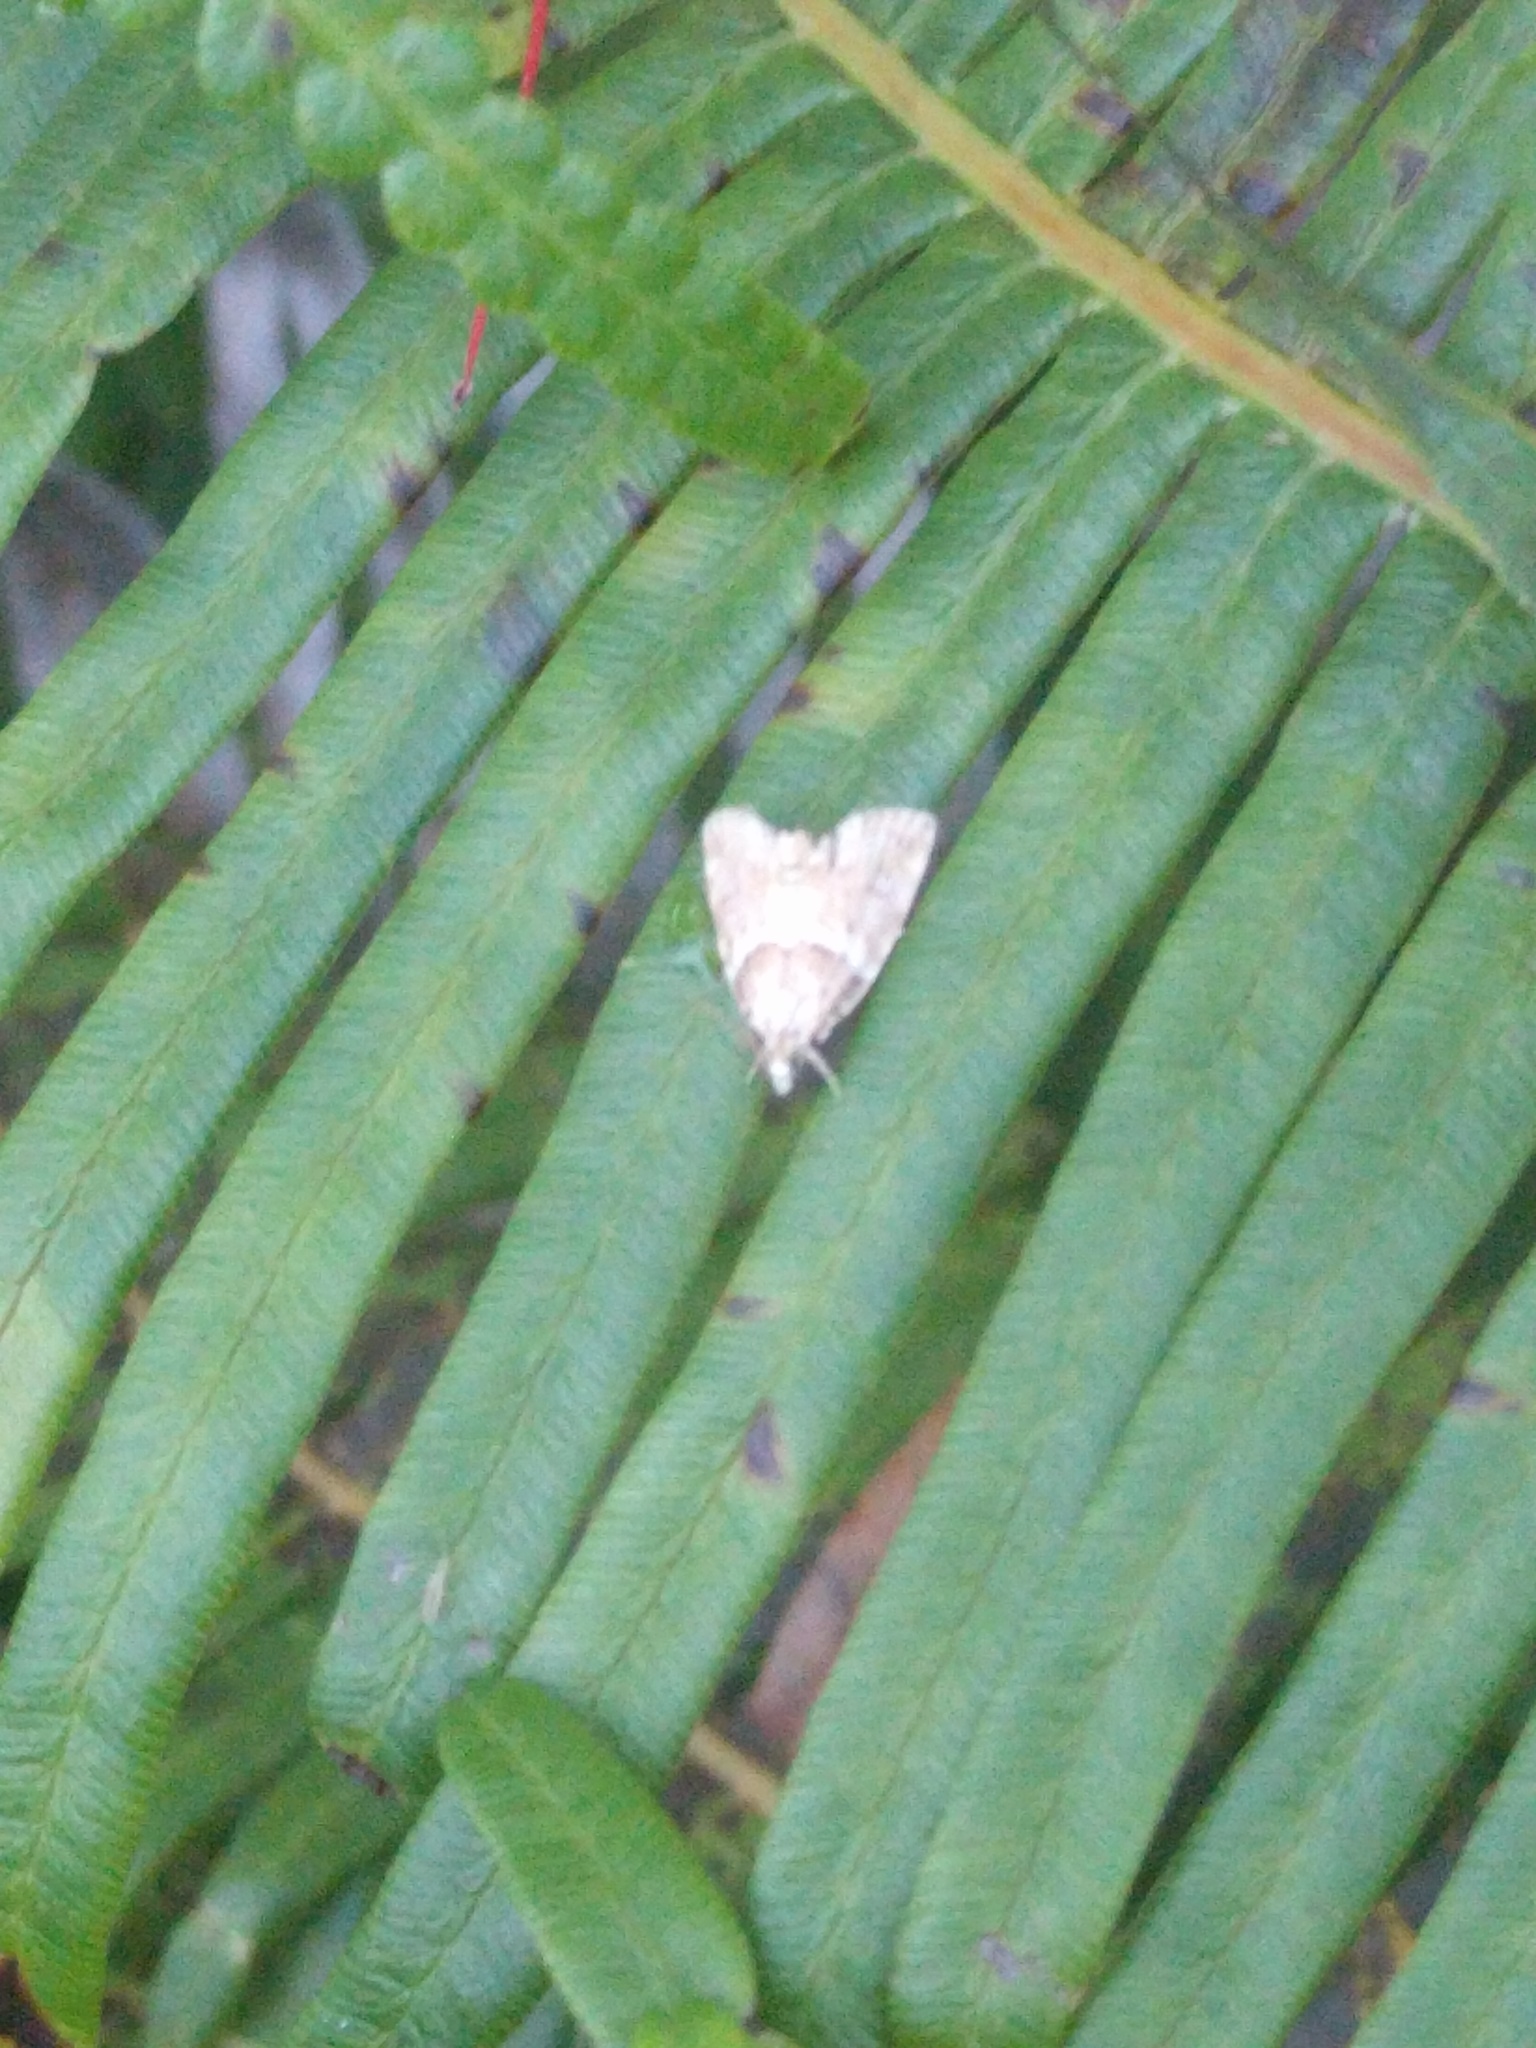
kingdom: Animalia
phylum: Arthropoda
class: Insecta
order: Lepidoptera
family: Crambidae
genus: Mestolobes
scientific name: Mestolobes perixantha
